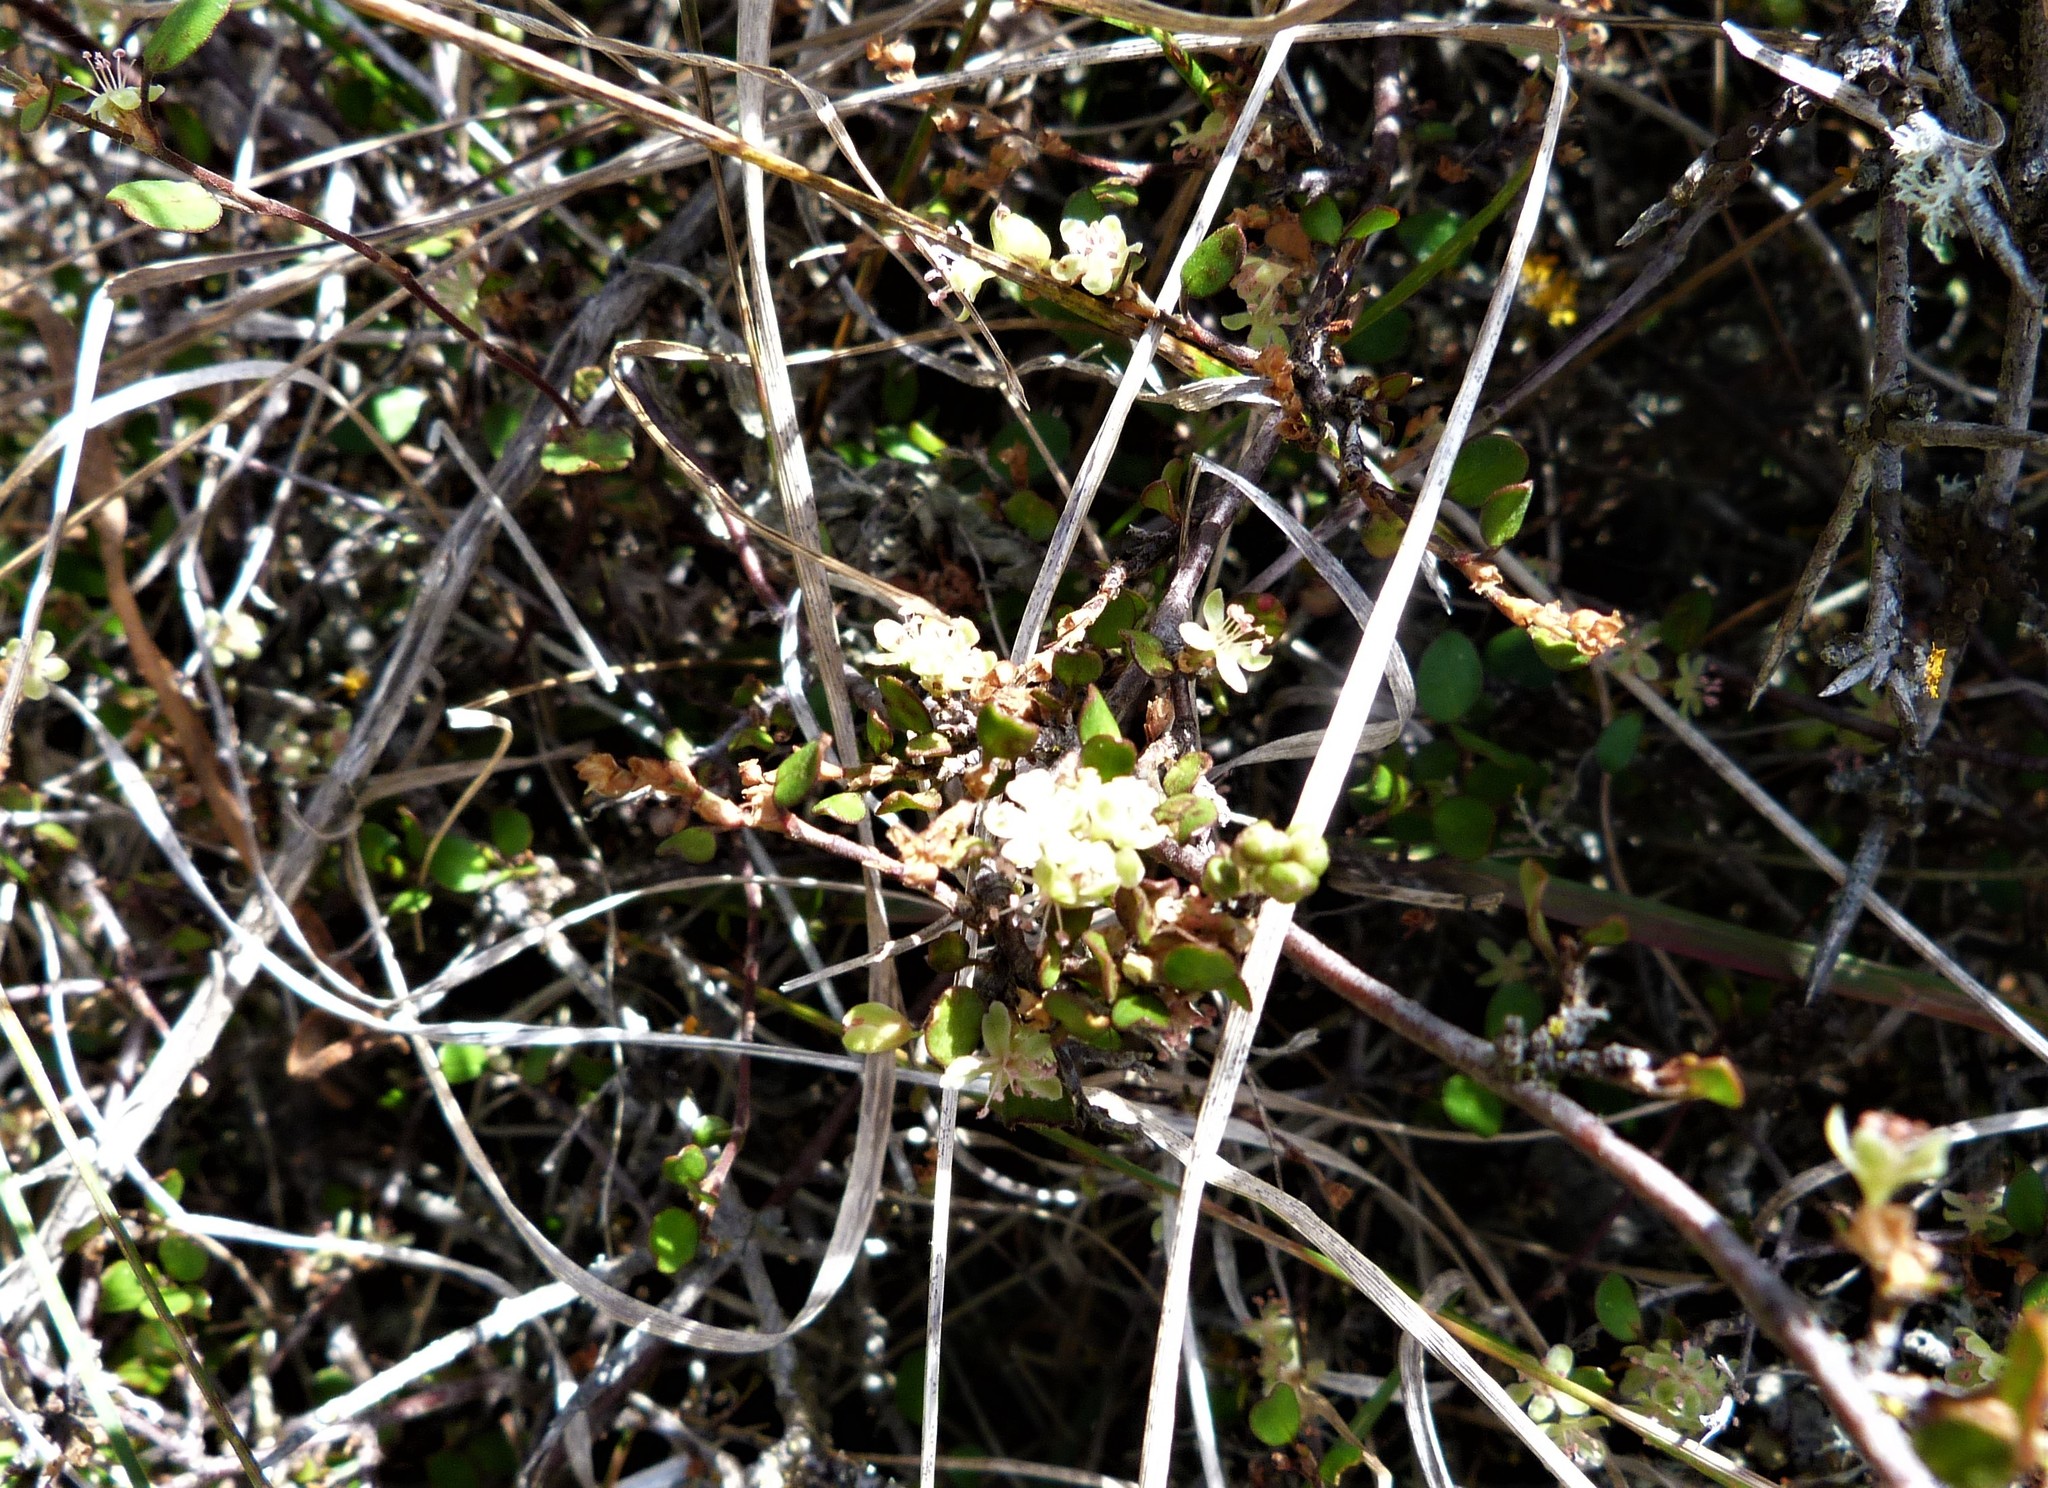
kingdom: Plantae
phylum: Tracheophyta
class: Magnoliopsida
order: Caryophyllales
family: Polygonaceae
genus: Muehlenbeckia
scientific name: Muehlenbeckia complexa
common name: Wireplant
